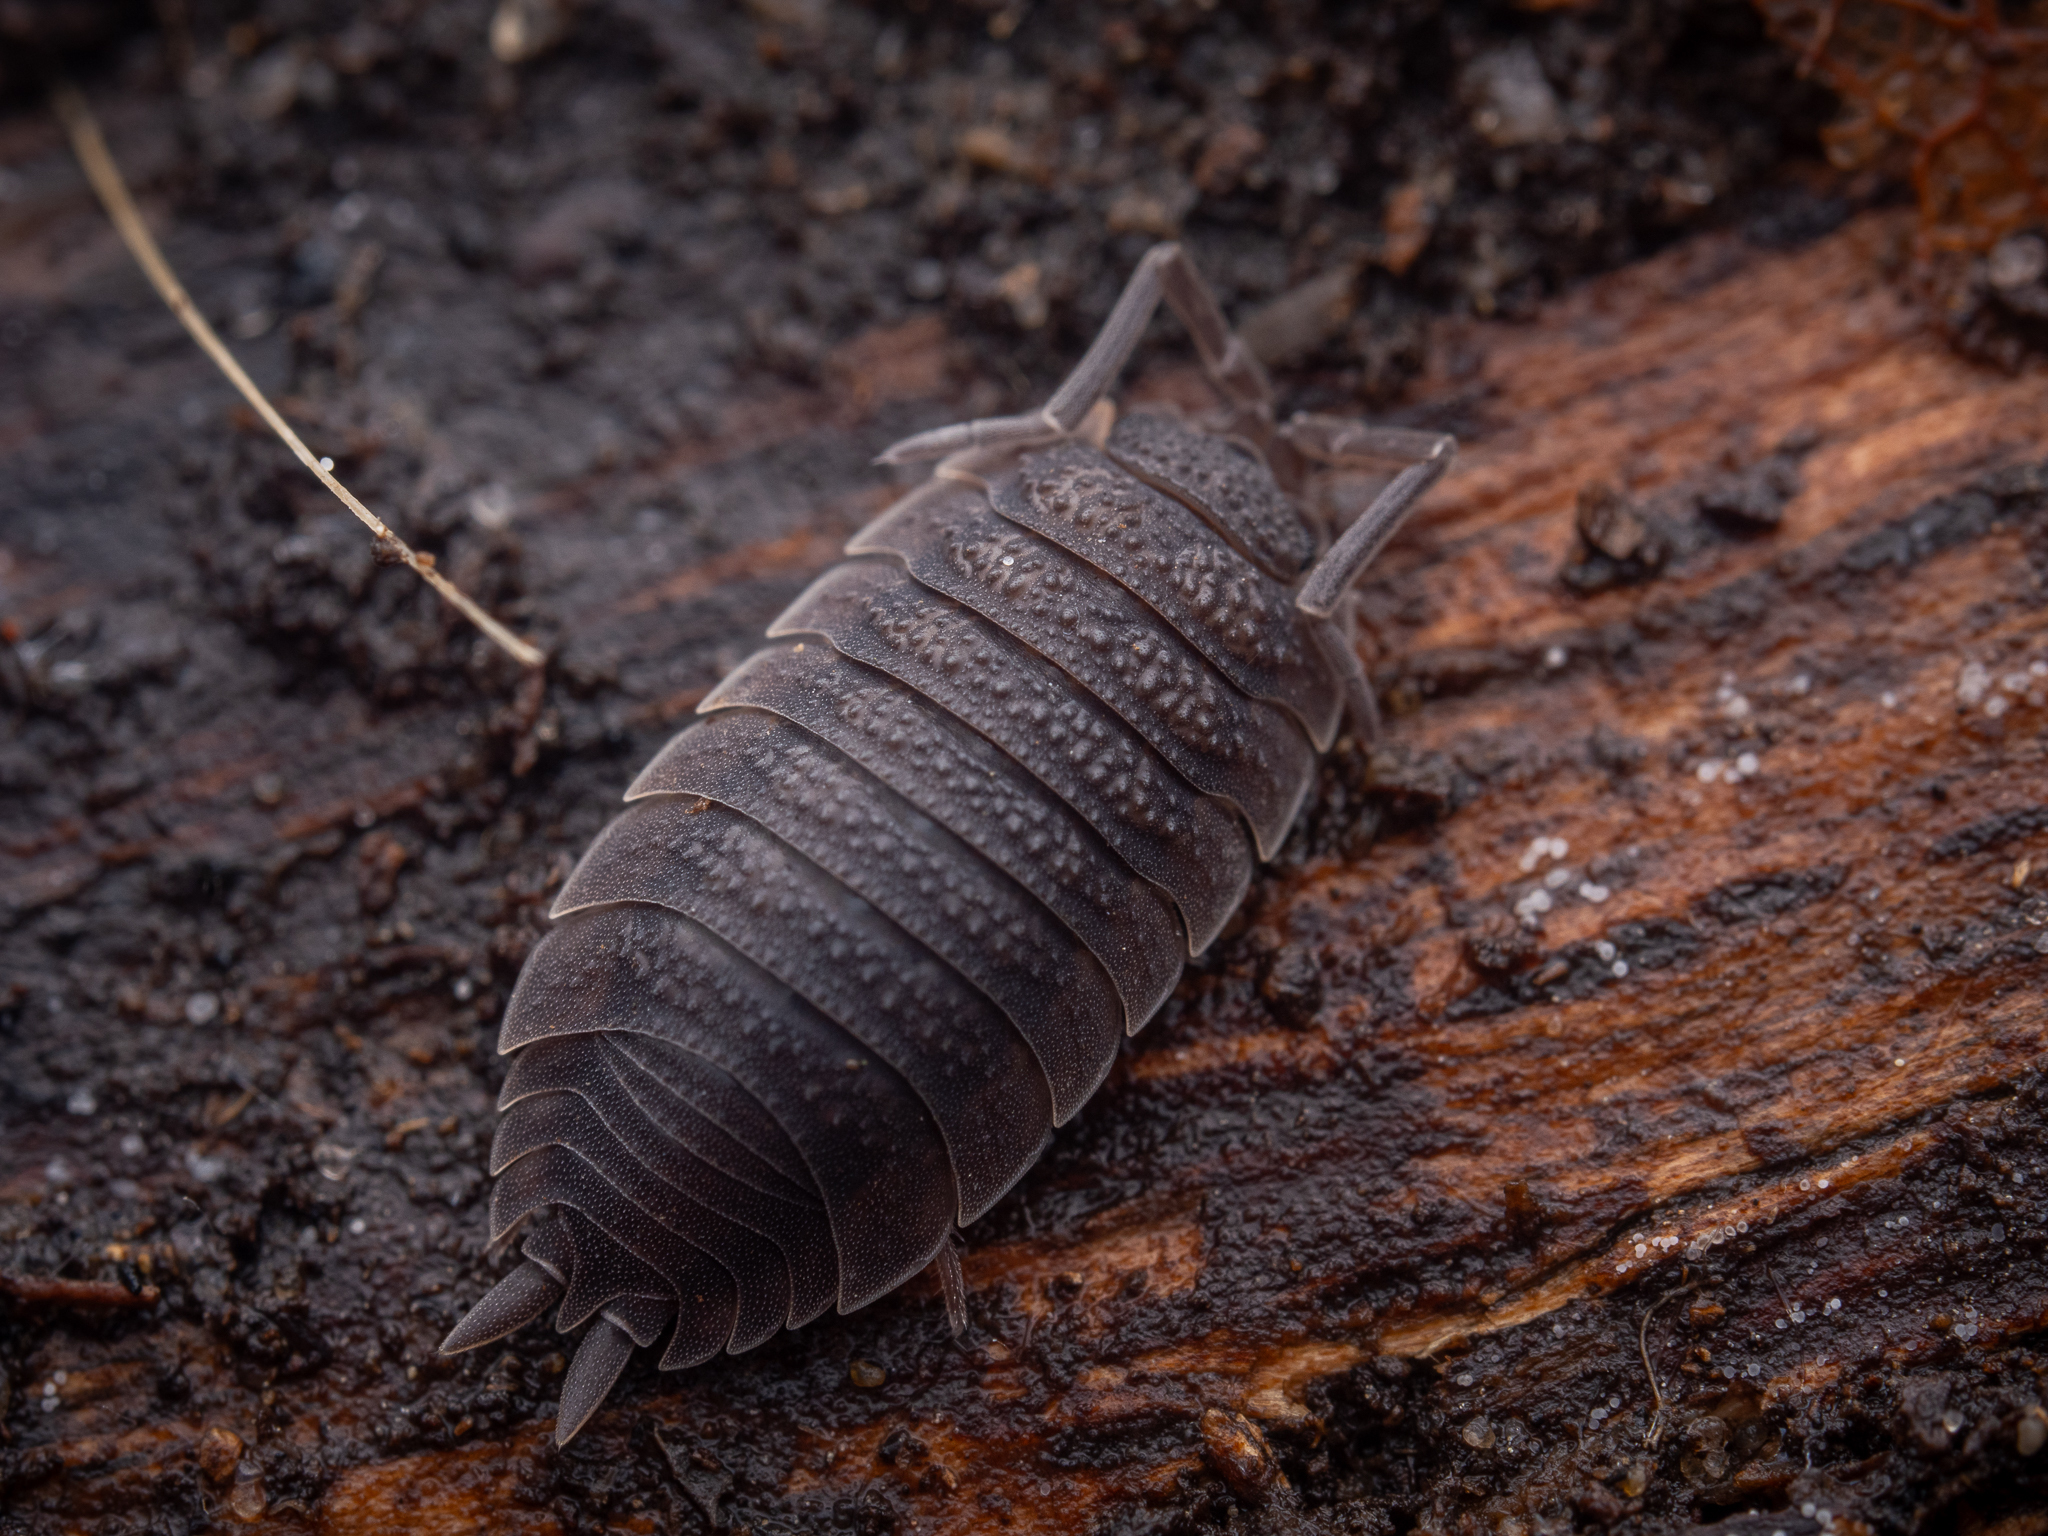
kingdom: Animalia
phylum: Arthropoda
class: Malacostraca
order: Isopoda
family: Porcellionidae
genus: Porcellio
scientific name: Porcellio scaber
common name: Common rough woodlouse
